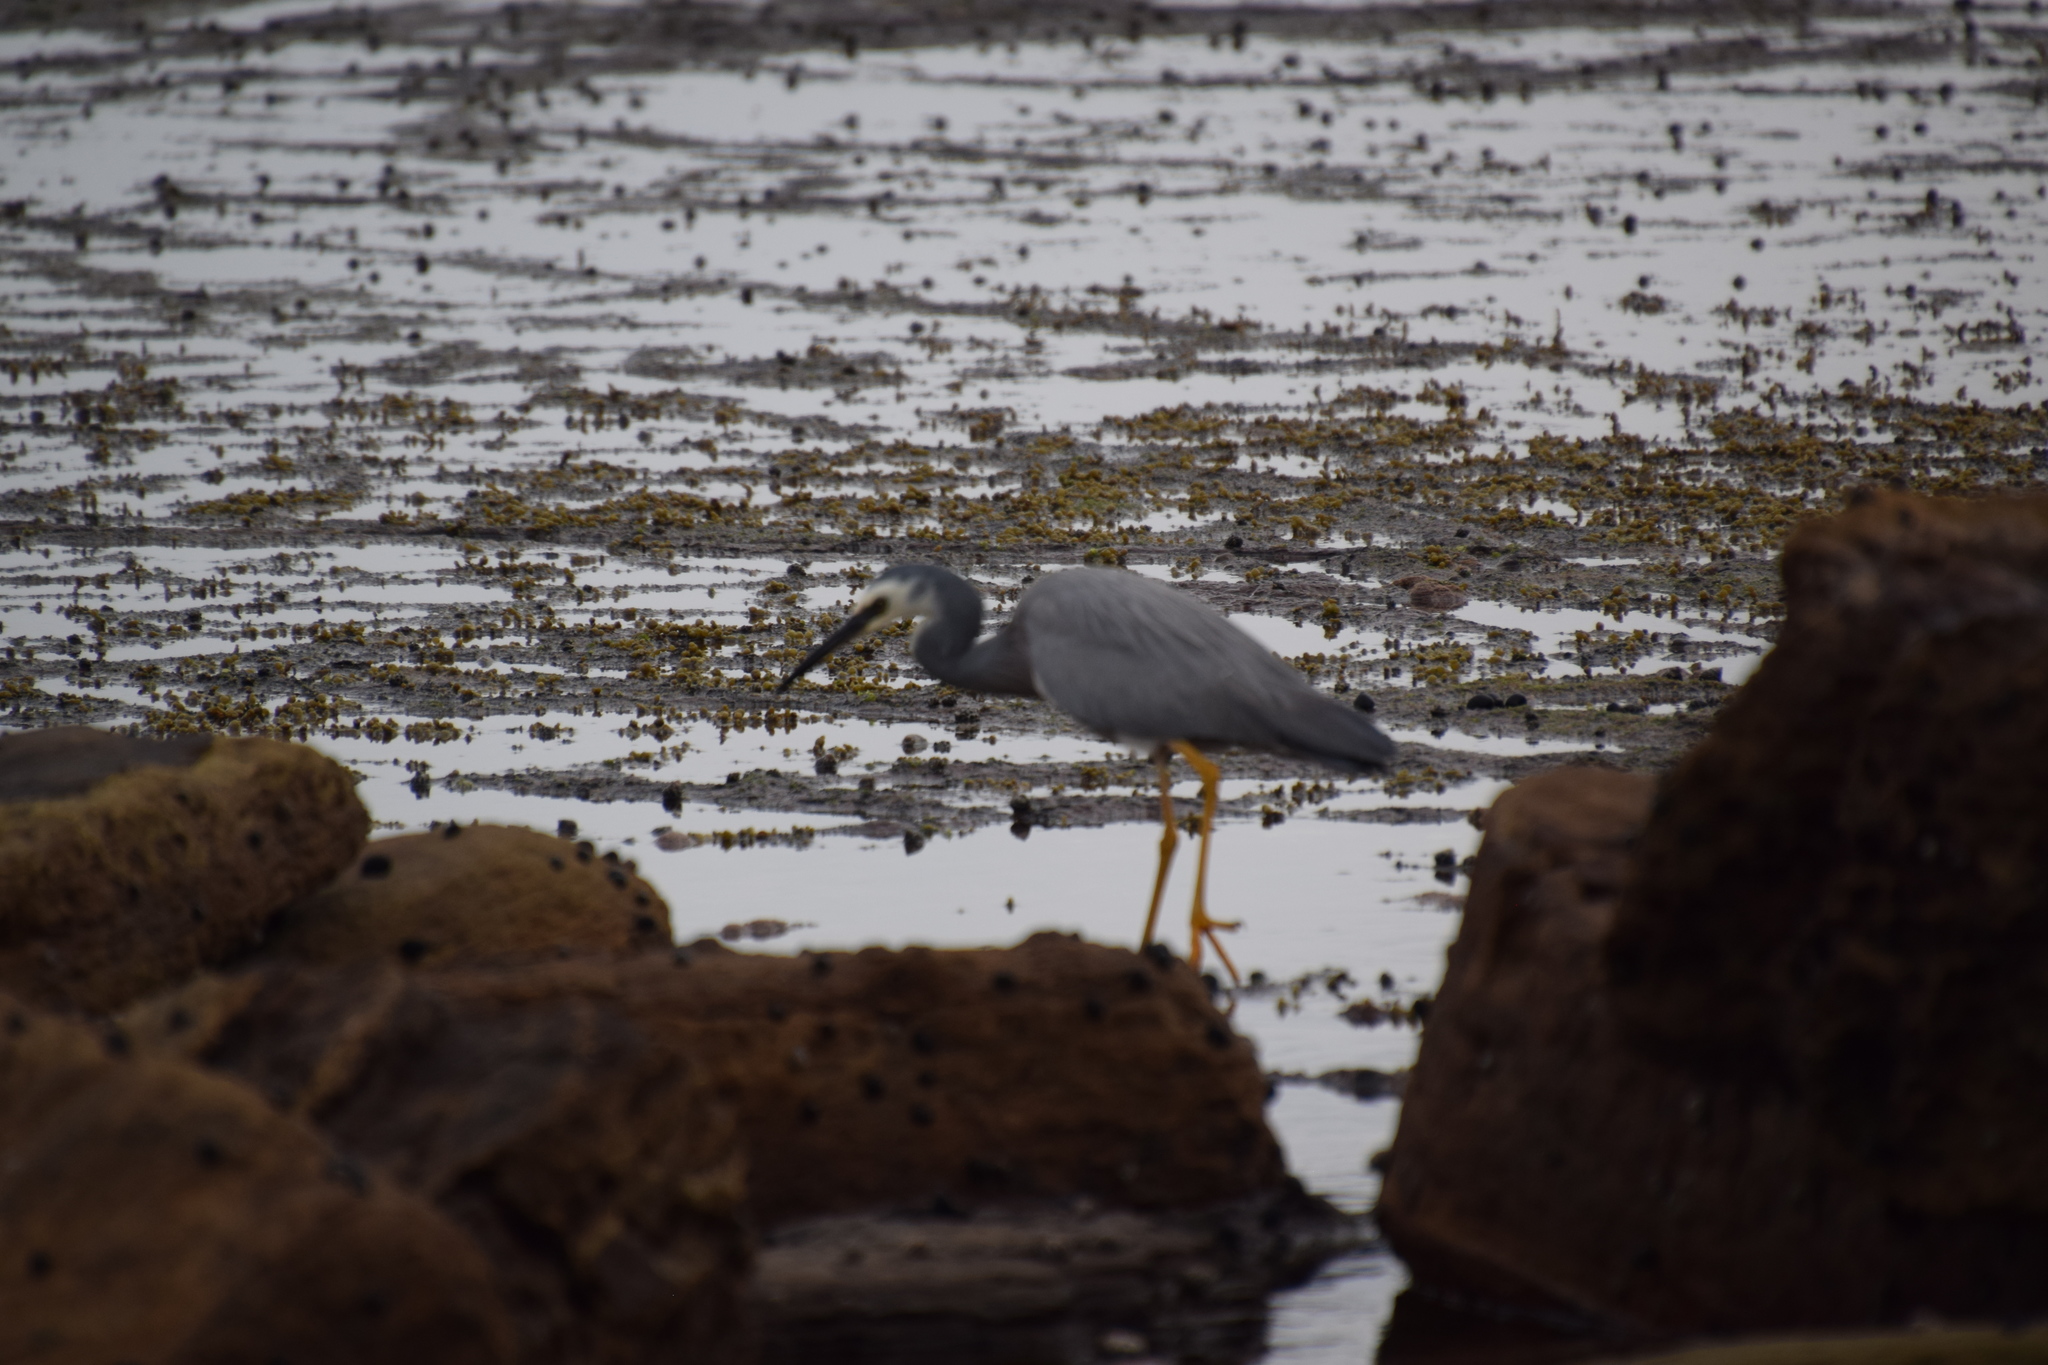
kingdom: Animalia
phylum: Chordata
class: Aves
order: Pelecaniformes
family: Ardeidae
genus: Egretta
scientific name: Egretta novaehollandiae
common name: White-faced heron
